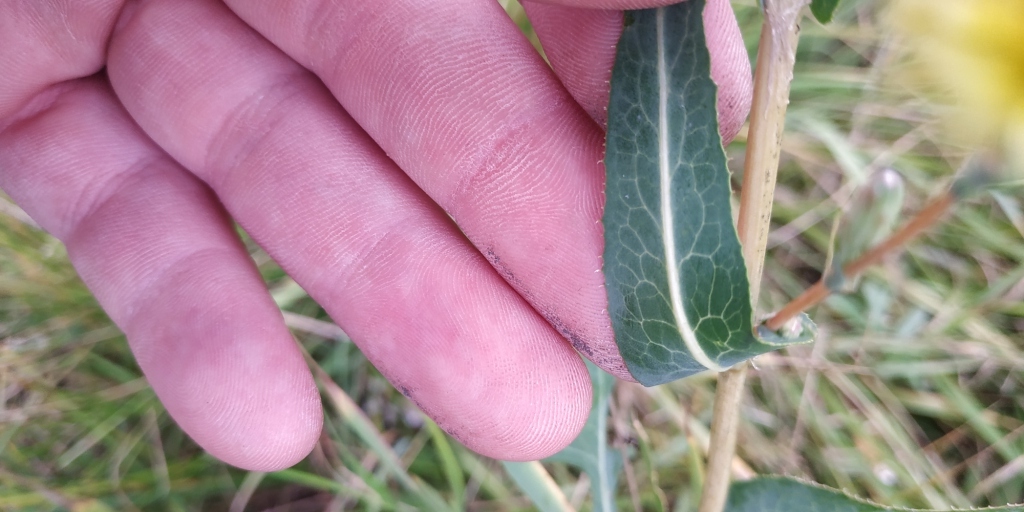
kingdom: Plantae
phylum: Tracheophyta
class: Magnoliopsida
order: Asterales
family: Asteraceae
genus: Lactuca
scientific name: Lactuca serriola
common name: Prickly lettuce
